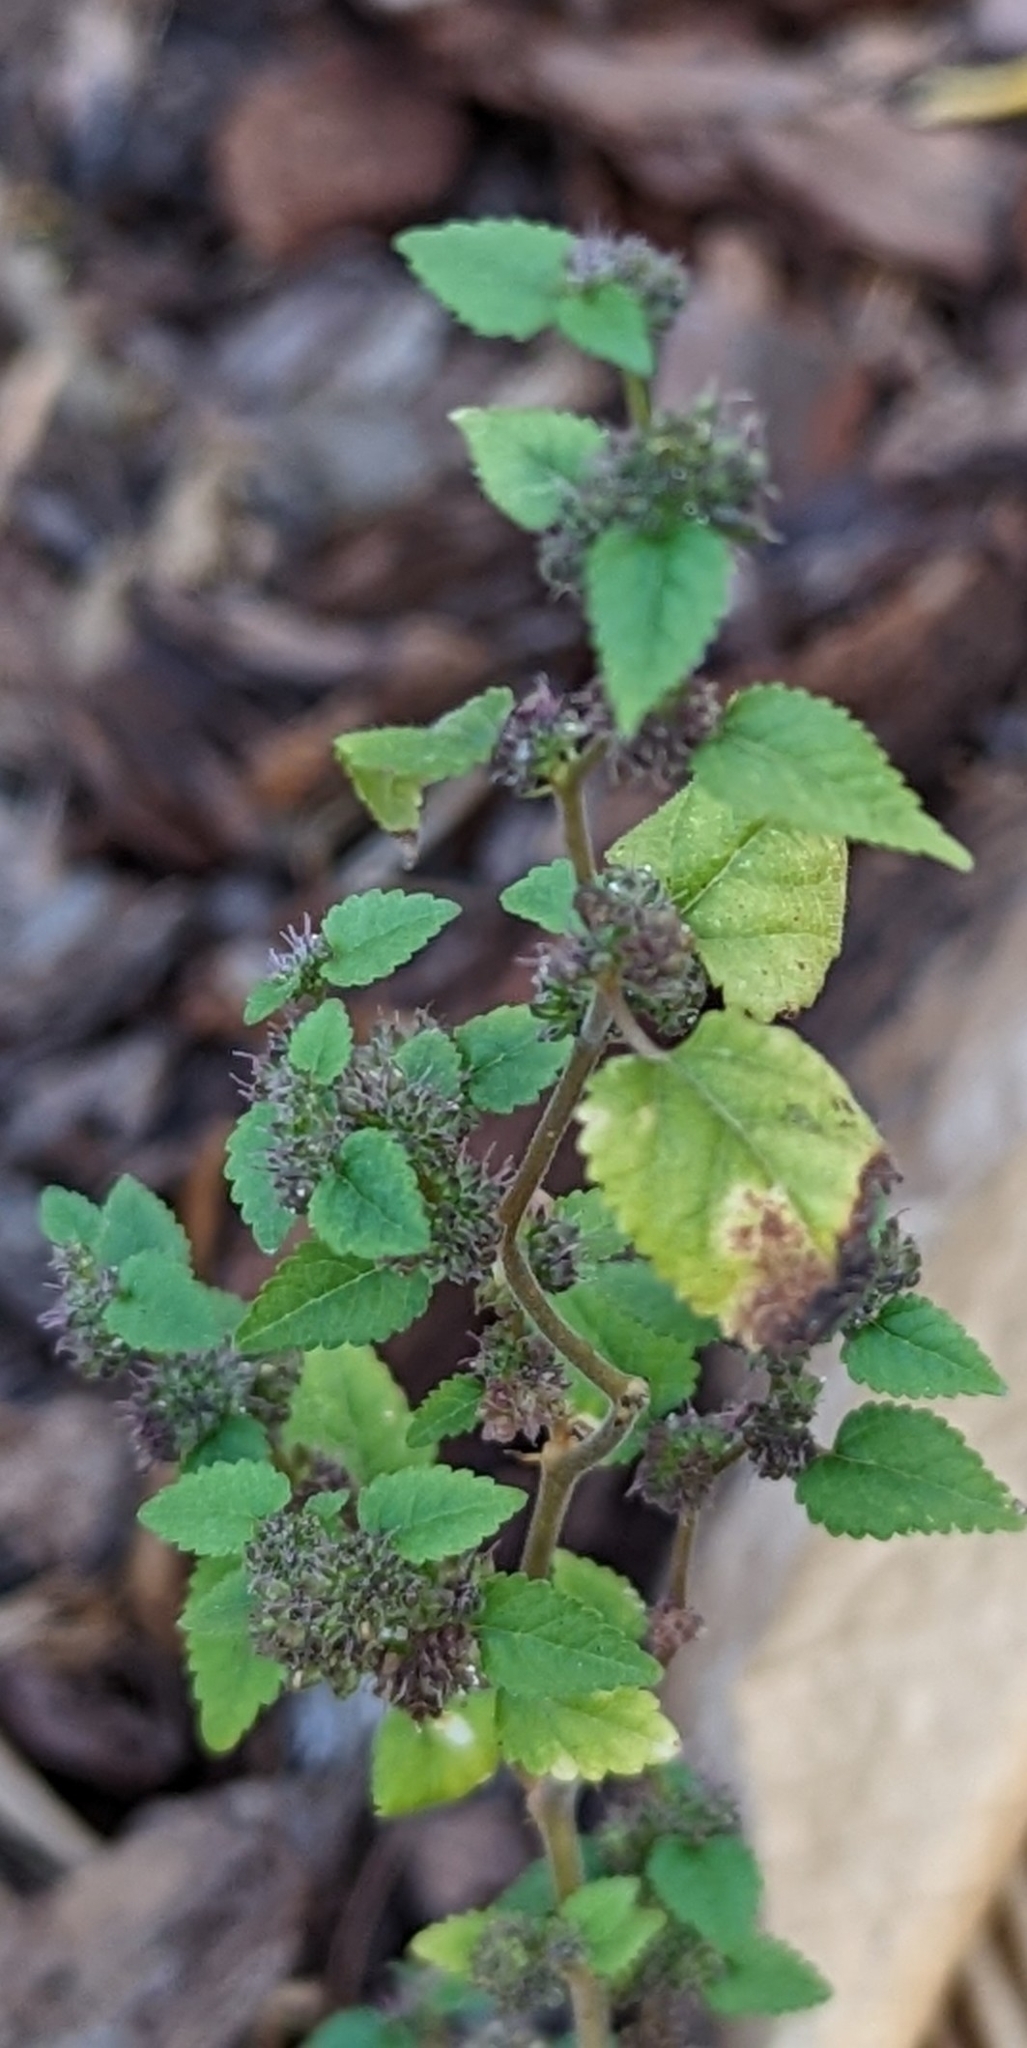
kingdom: Plantae
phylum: Tracheophyta
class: Magnoliopsida
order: Rosales
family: Moraceae
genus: Fatoua
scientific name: Fatoua villosa
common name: Hairy crabweed
